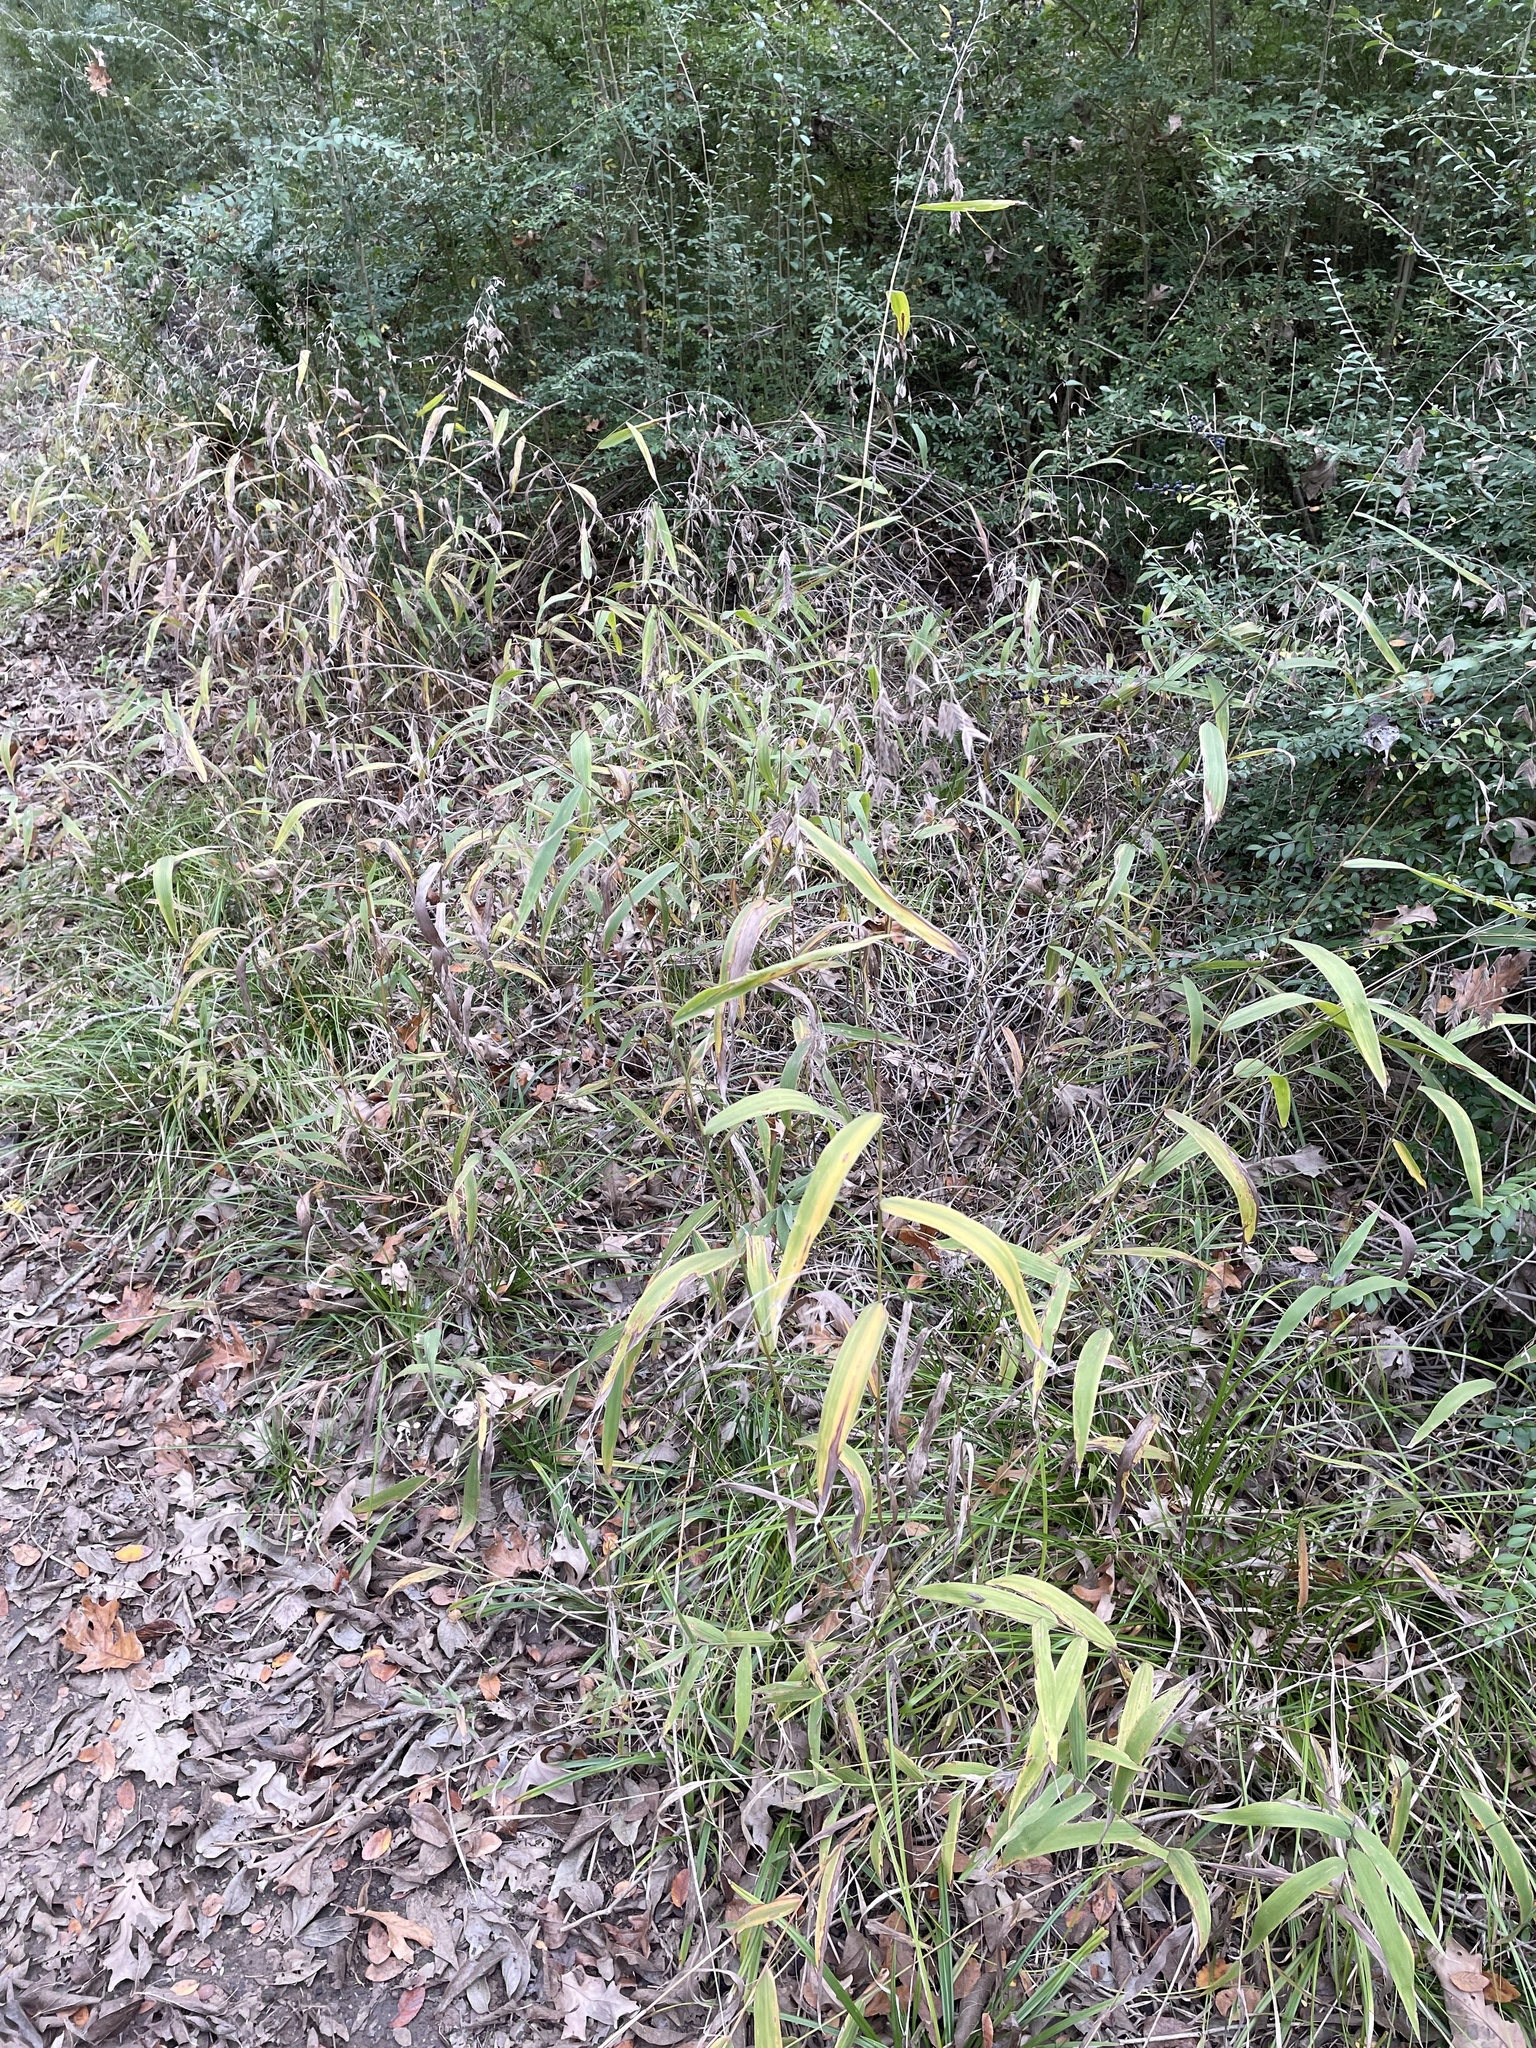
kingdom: Plantae
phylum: Tracheophyta
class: Liliopsida
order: Poales
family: Poaceae
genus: Chasmanthium
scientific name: Chasmanthium latifolium
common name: Broad-leaved chasmanthium
